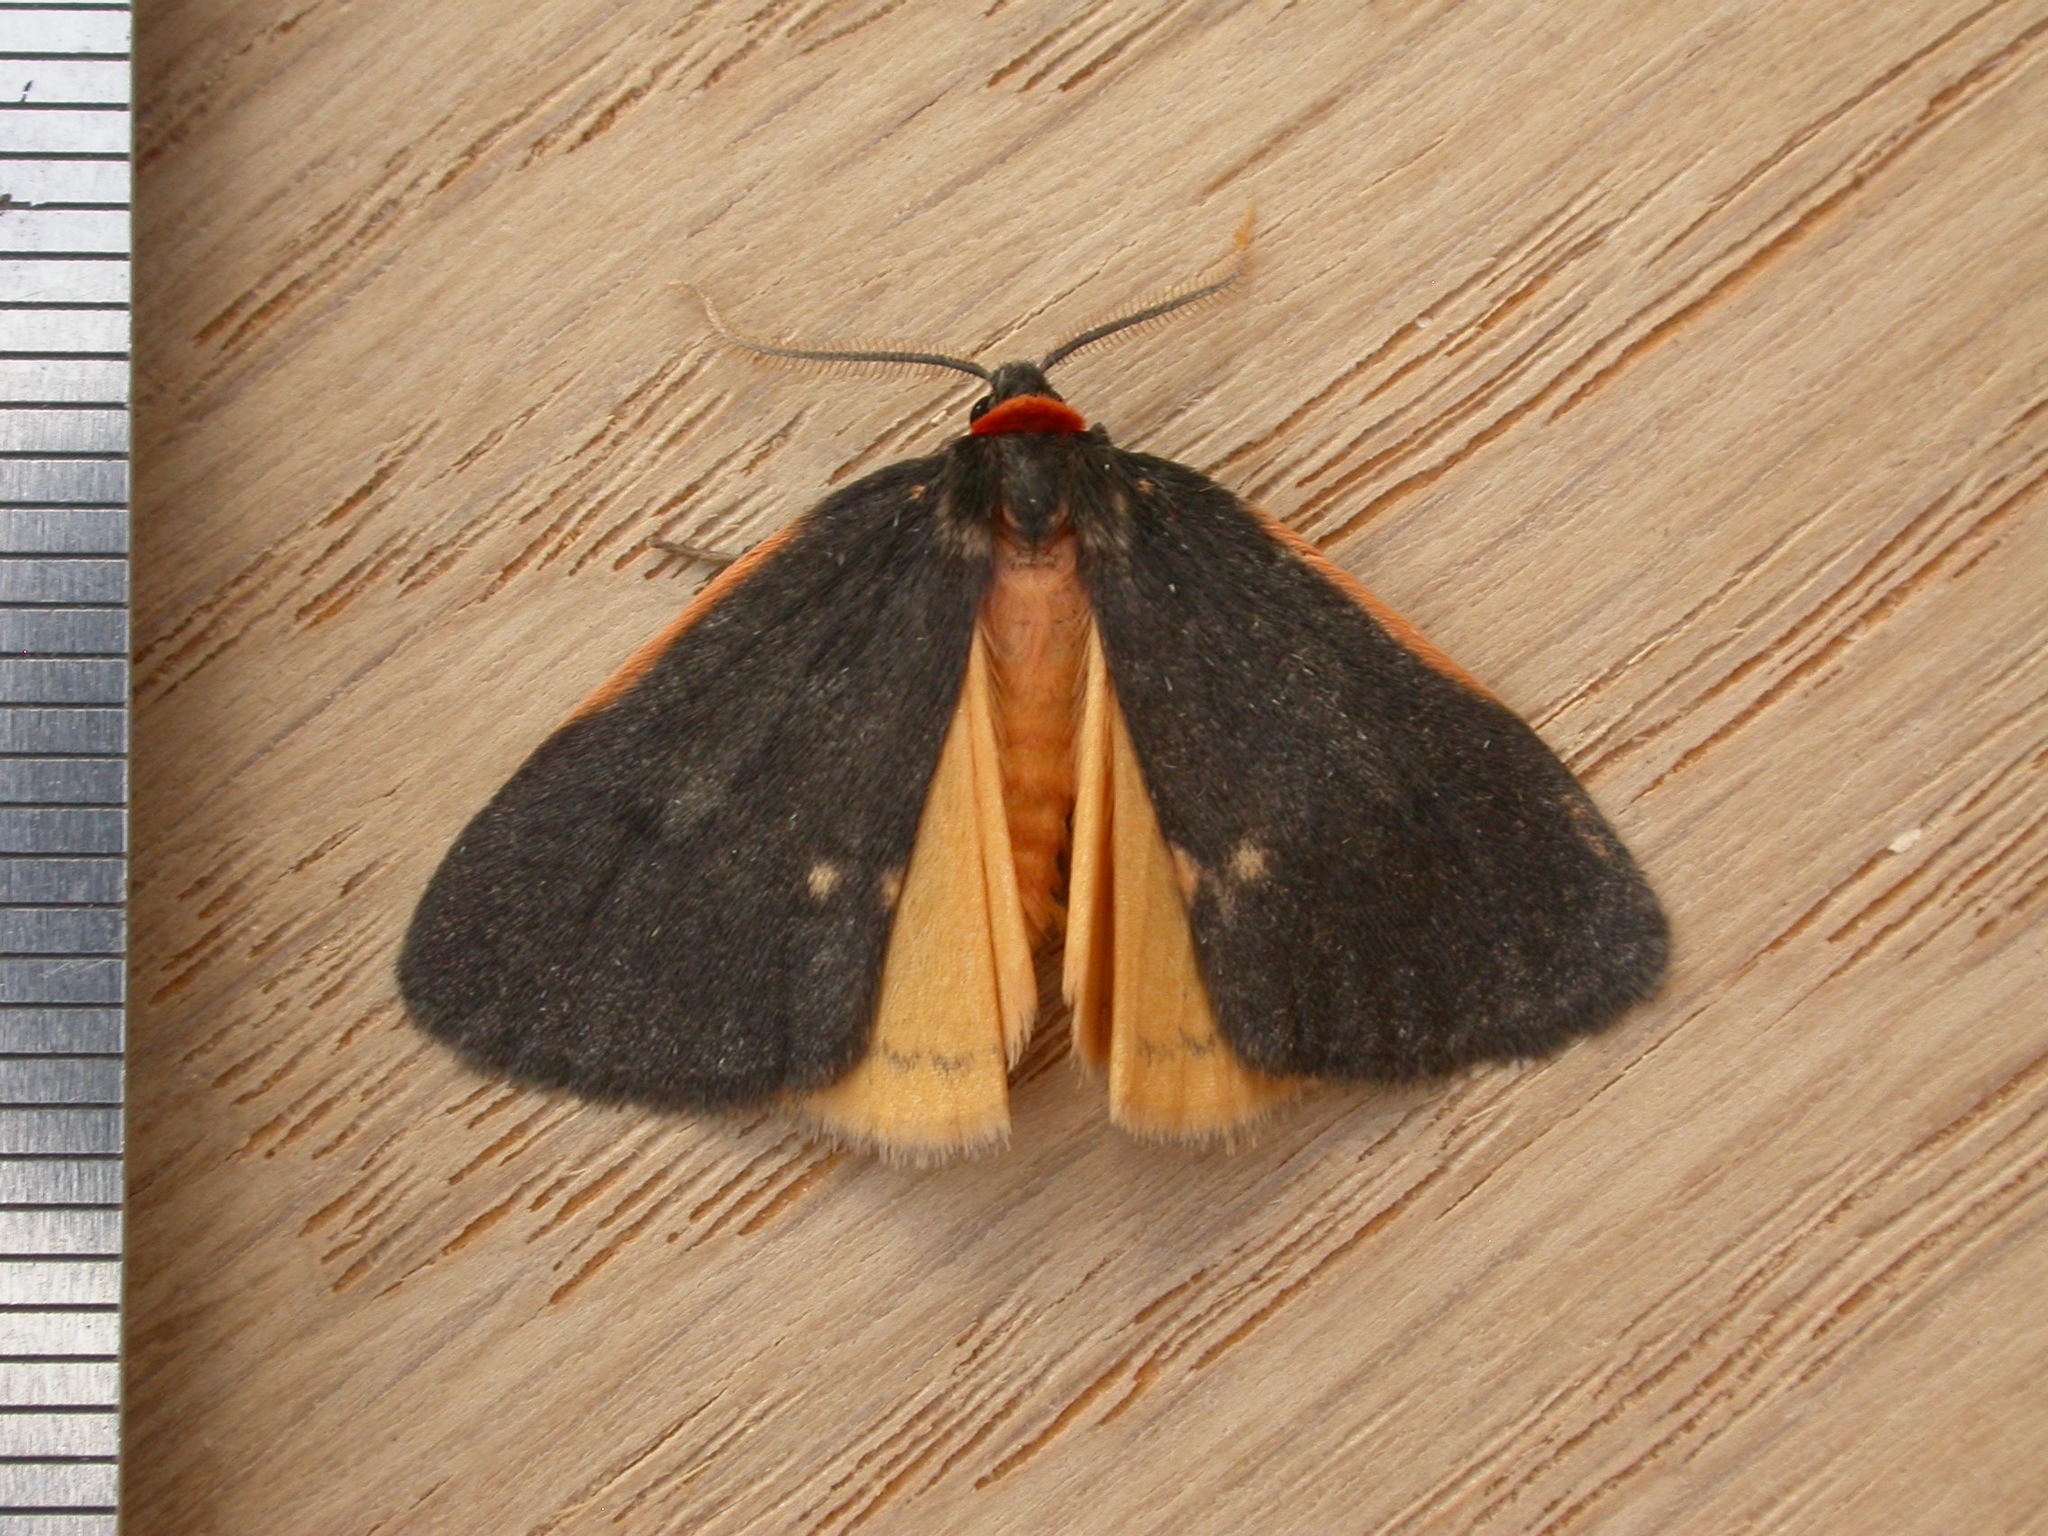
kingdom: Animalia
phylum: Arthropoda
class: Insecta
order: Lepidoptera
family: Erebidae
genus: Castulo
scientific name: Castulo doubledayi
